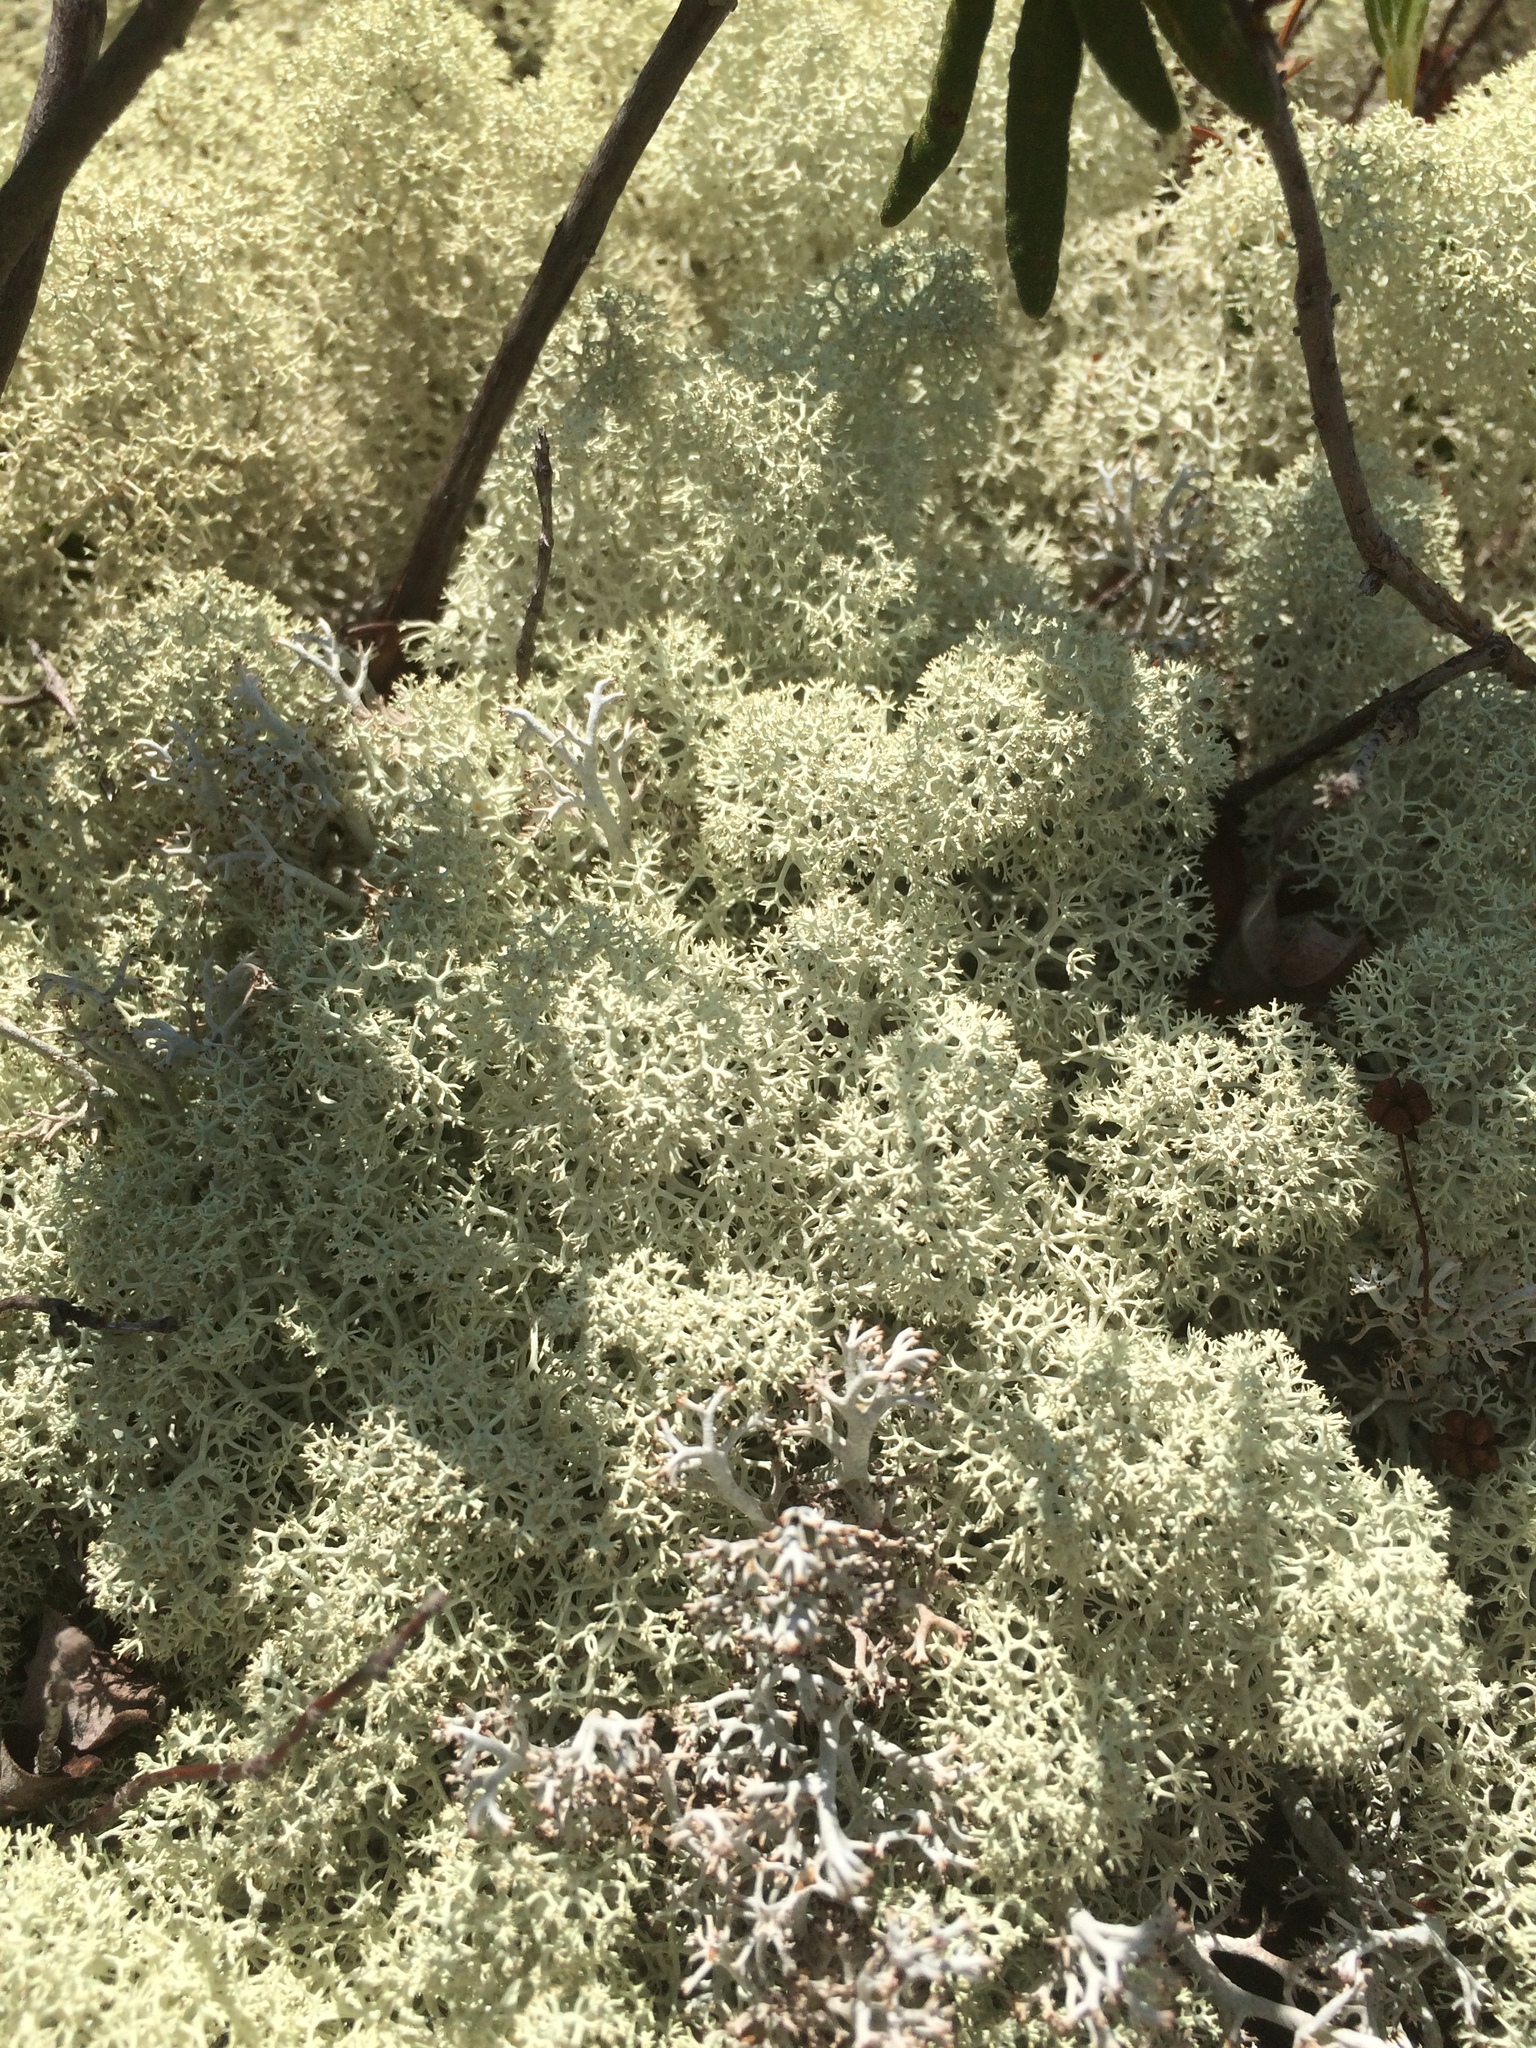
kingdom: Fungi
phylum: Ascomycota
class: Lecanoromycetes
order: Lecanorales
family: Cladoniaceae
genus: Cladonia
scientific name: Cladonia stellaris
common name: Star-tipped reindeer lichen
